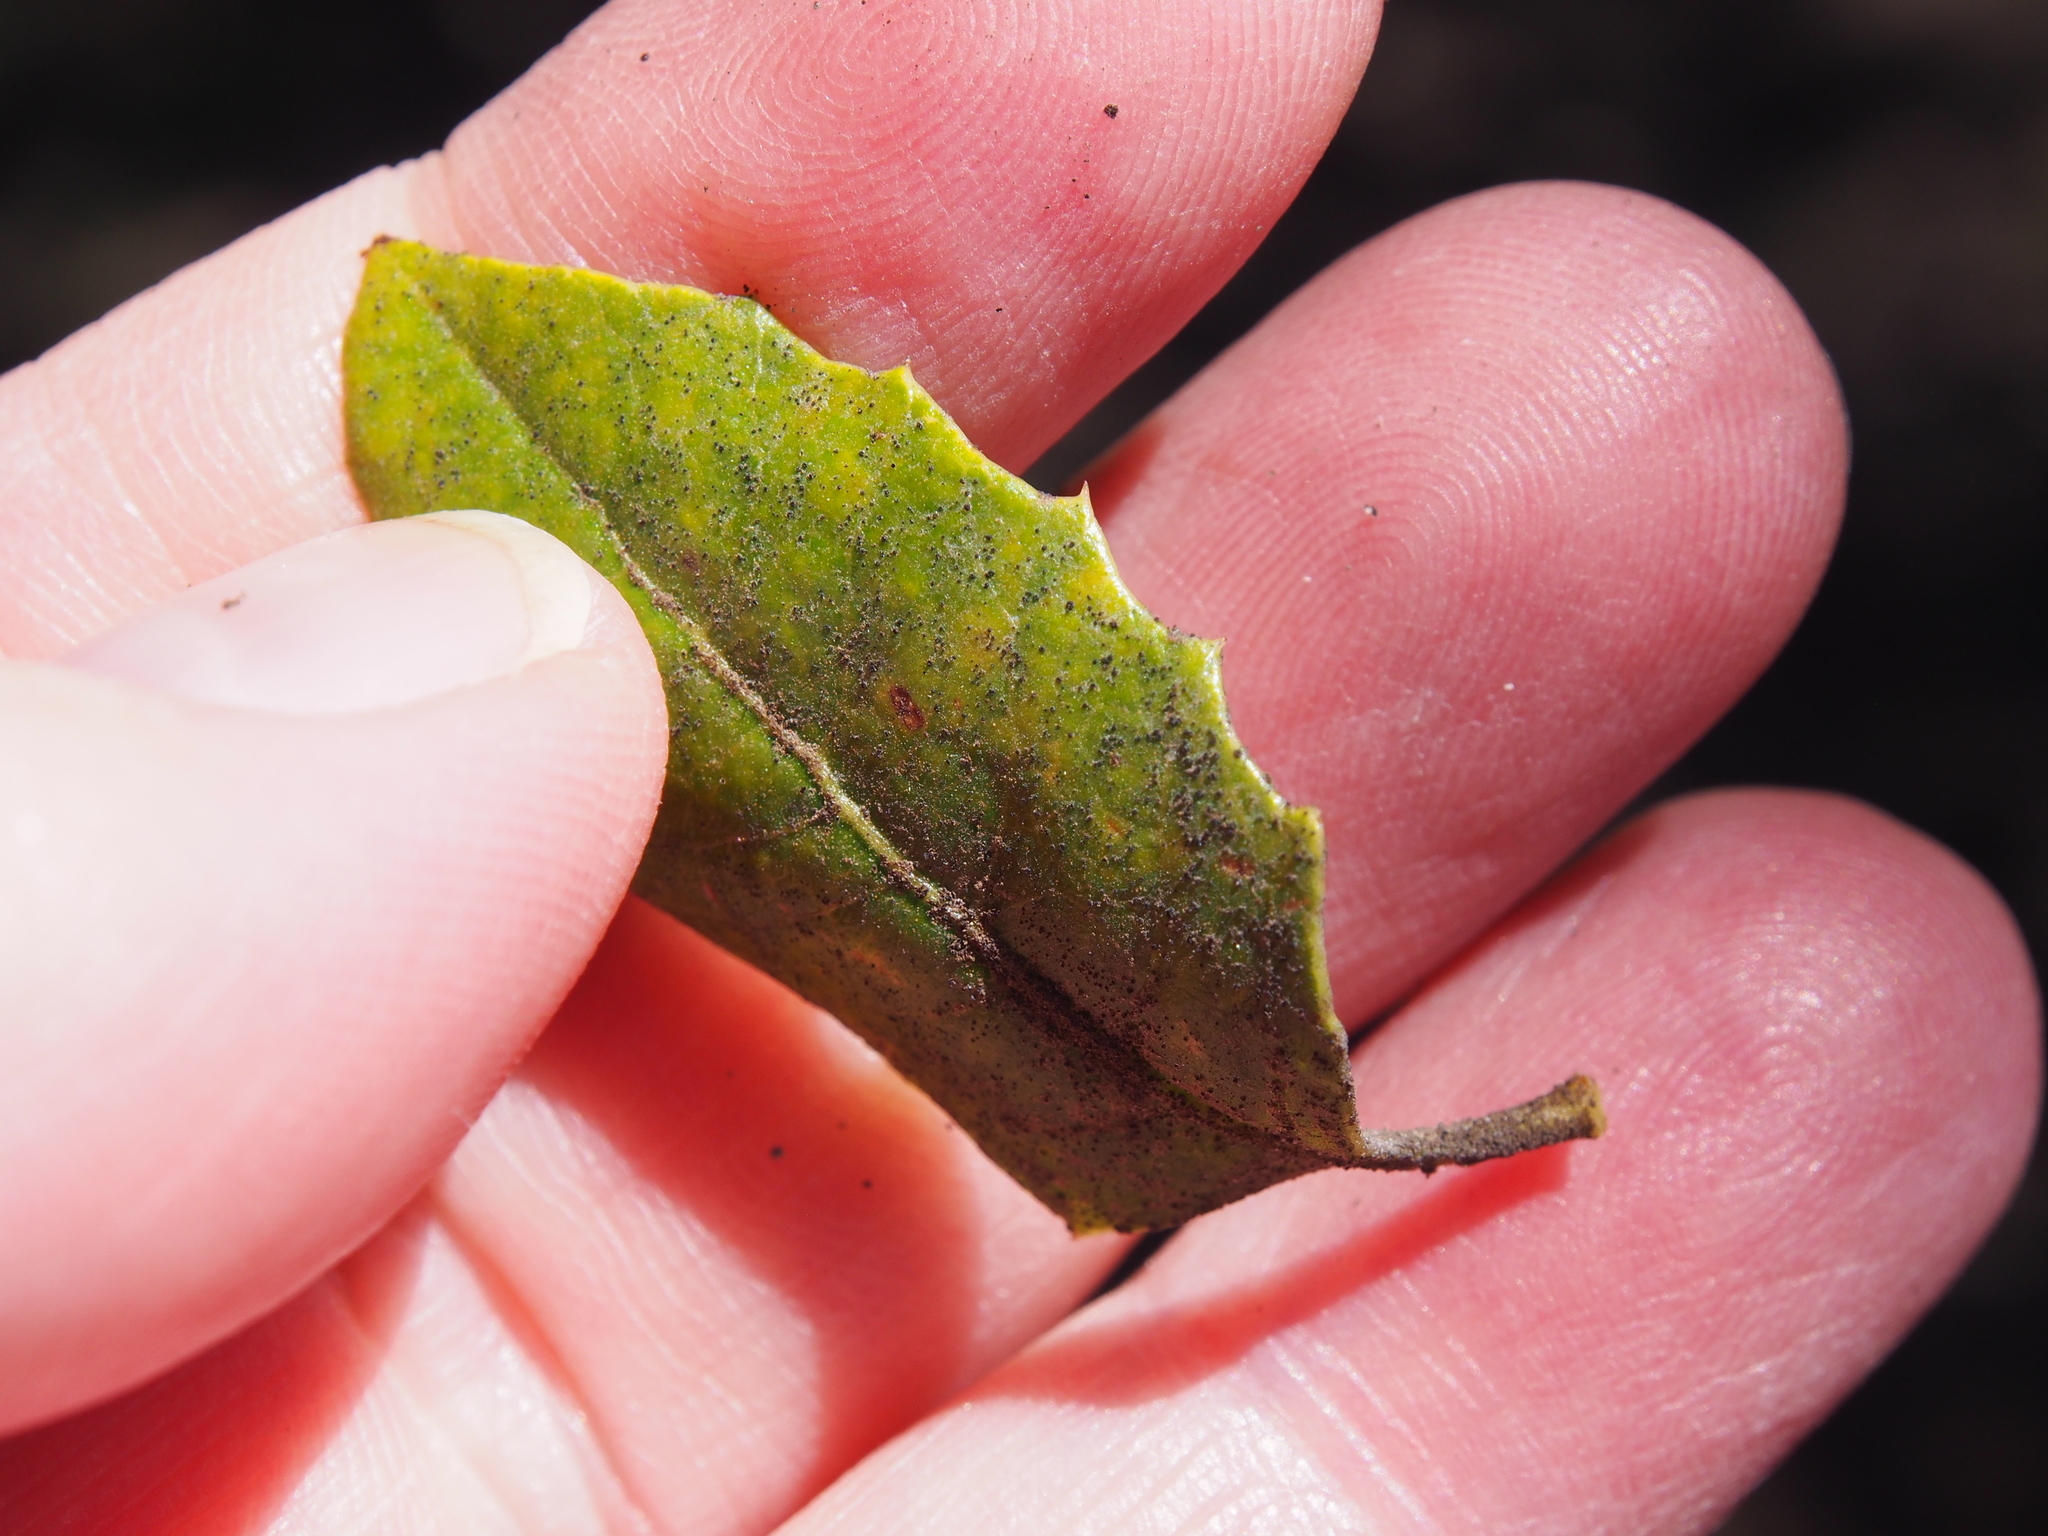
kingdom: Plantae
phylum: Tracheophyta
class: Magnoliopsida
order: Lamiales
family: Verbenaceae
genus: Citharexylum
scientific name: Citharexylum ilicifolium
